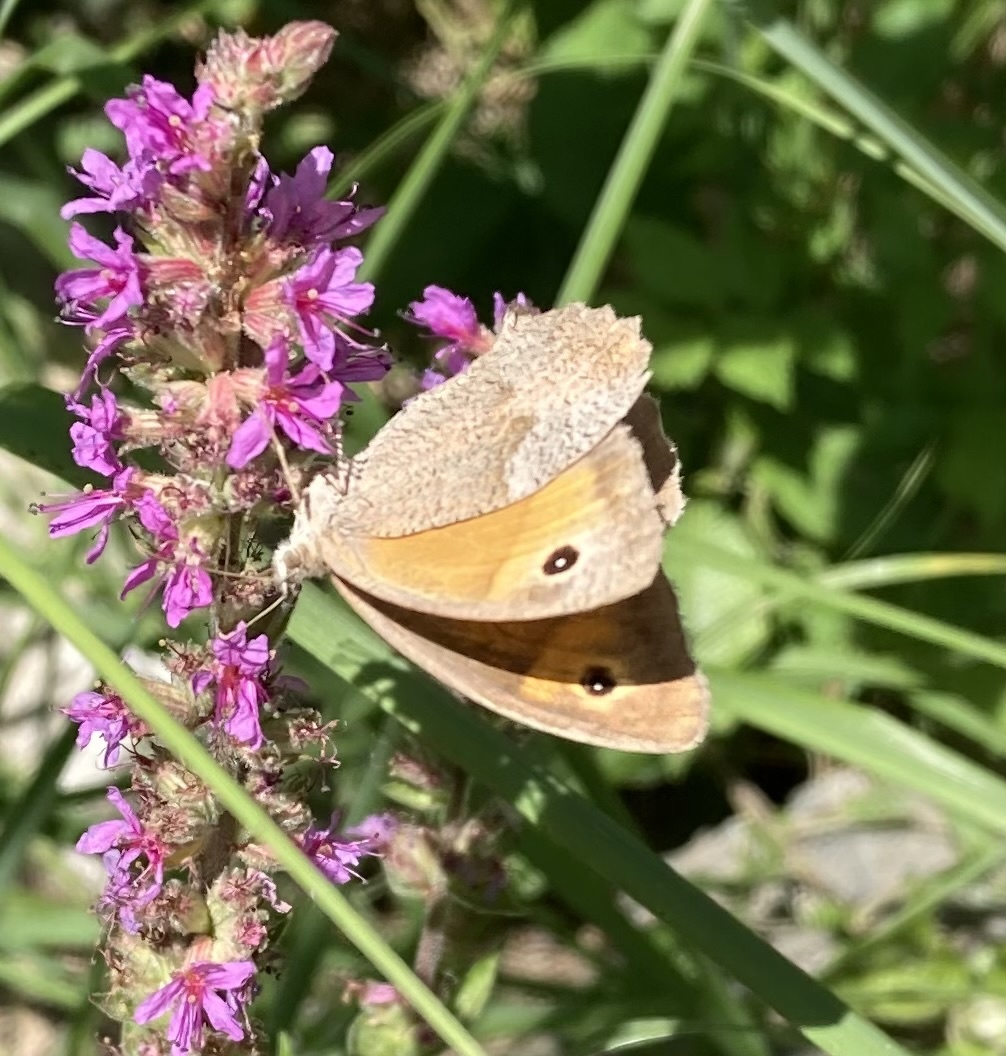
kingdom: Animalia
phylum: Arthropoda
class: Insecta
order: Lepidoptera
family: Nymphalidae
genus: Maniola
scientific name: Maniola jurtina
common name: Meadow brown
